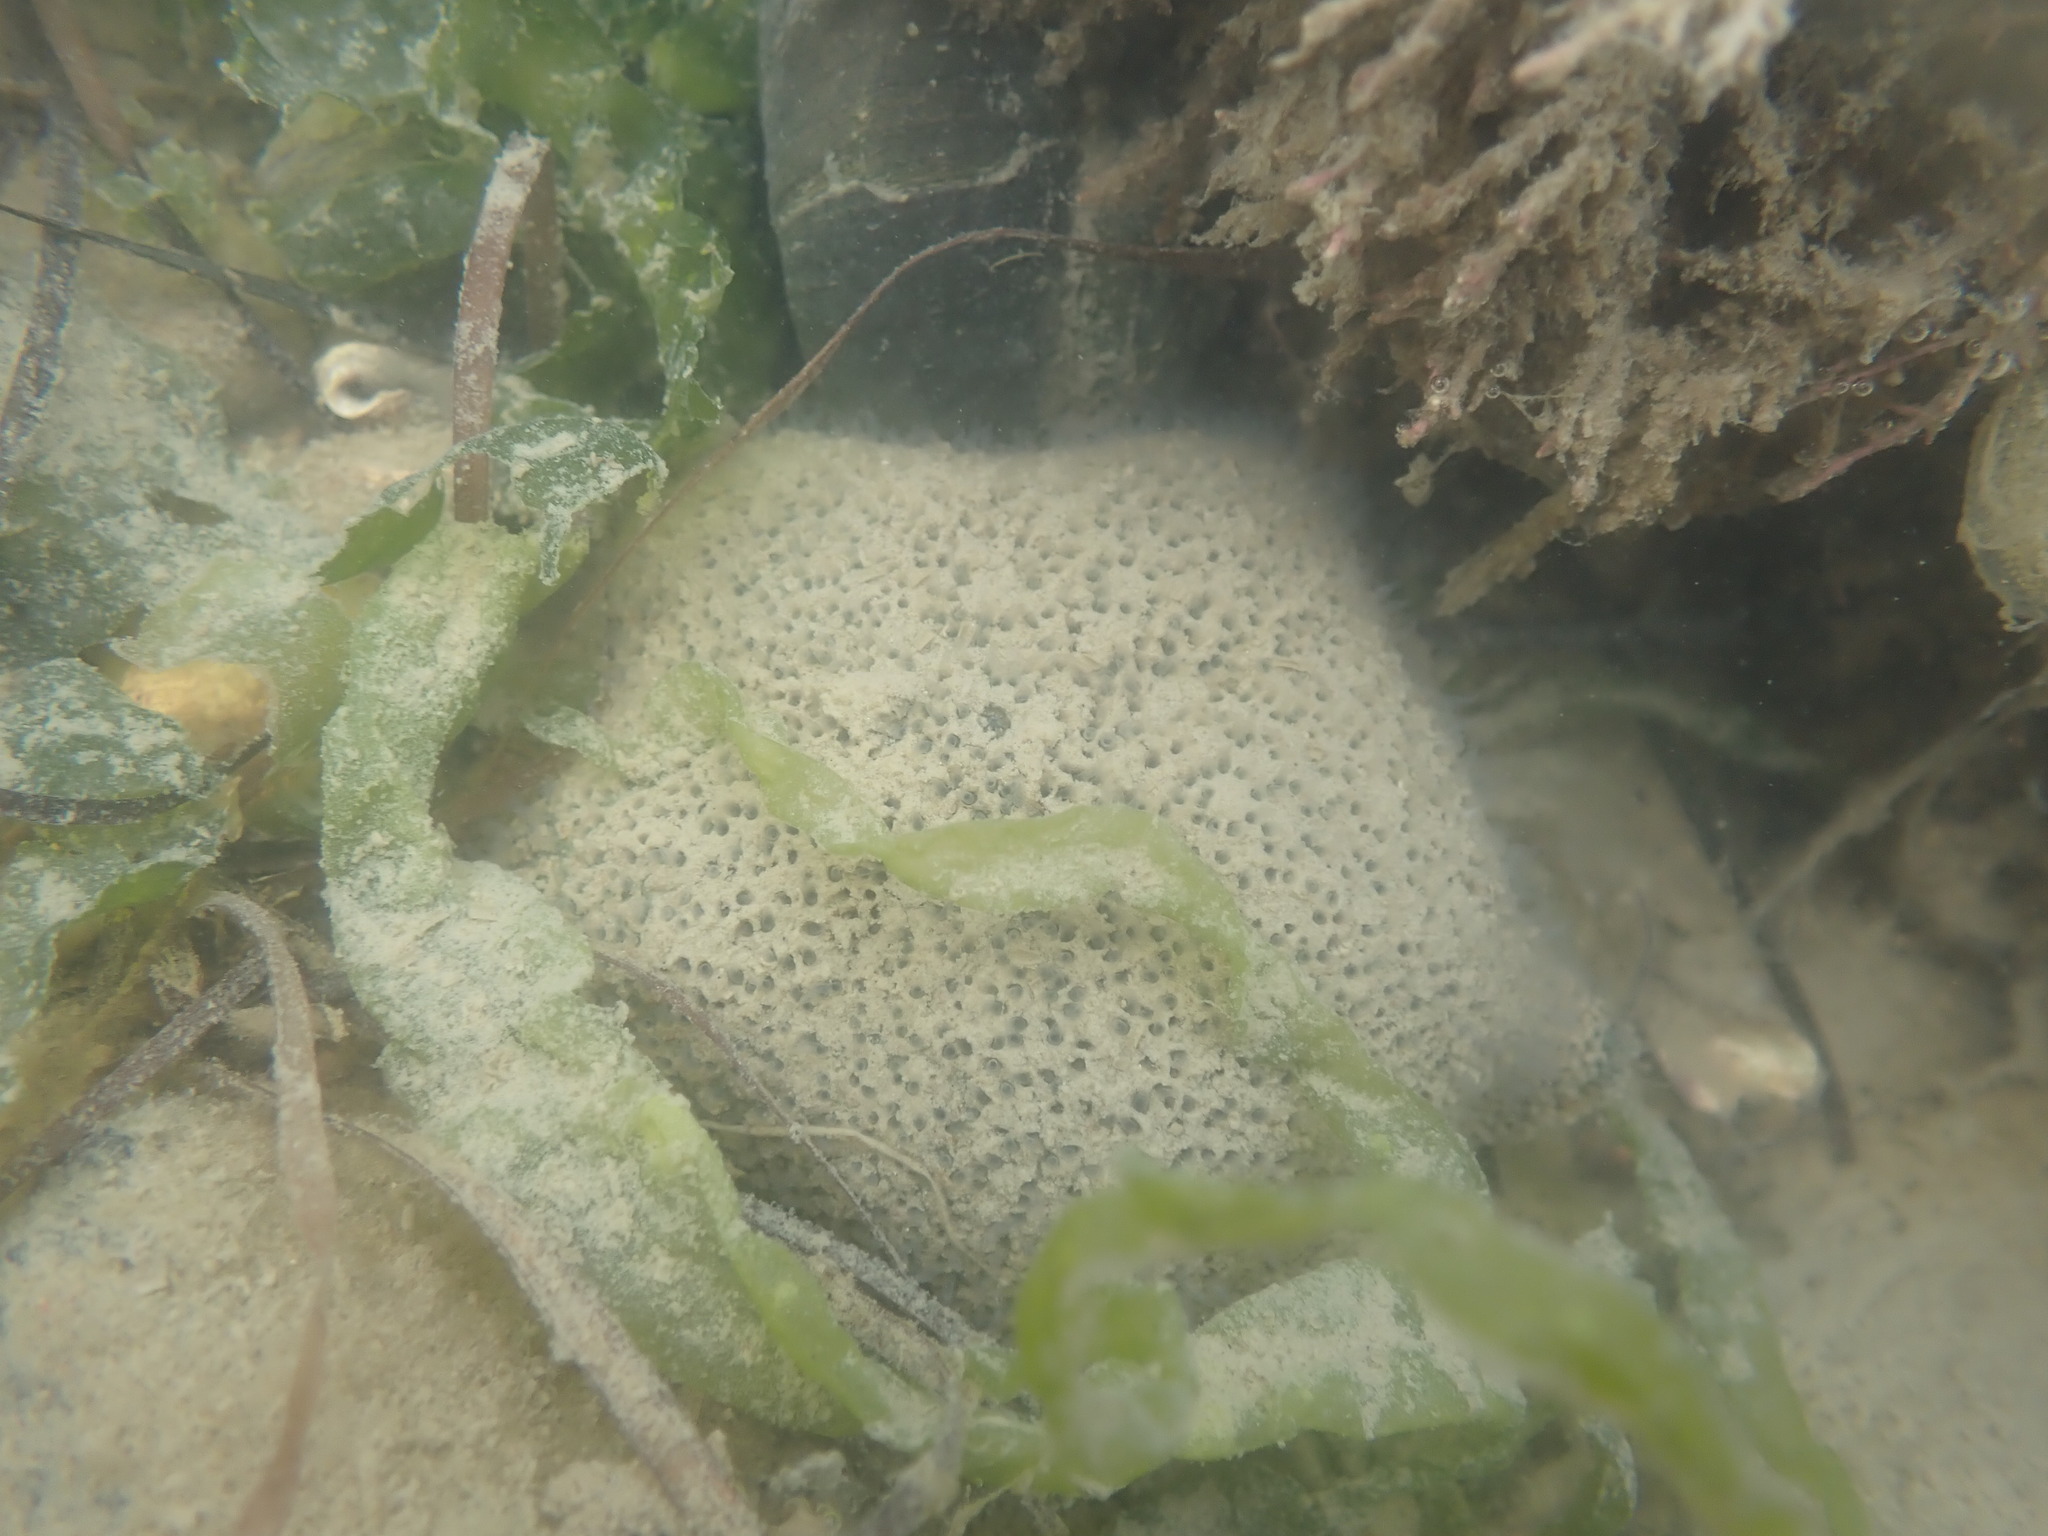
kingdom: Animalia
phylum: Echinodermata
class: Asteroidea
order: Valvatida
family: Asterinidae
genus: Patiriella
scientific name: Patiriella regularis
